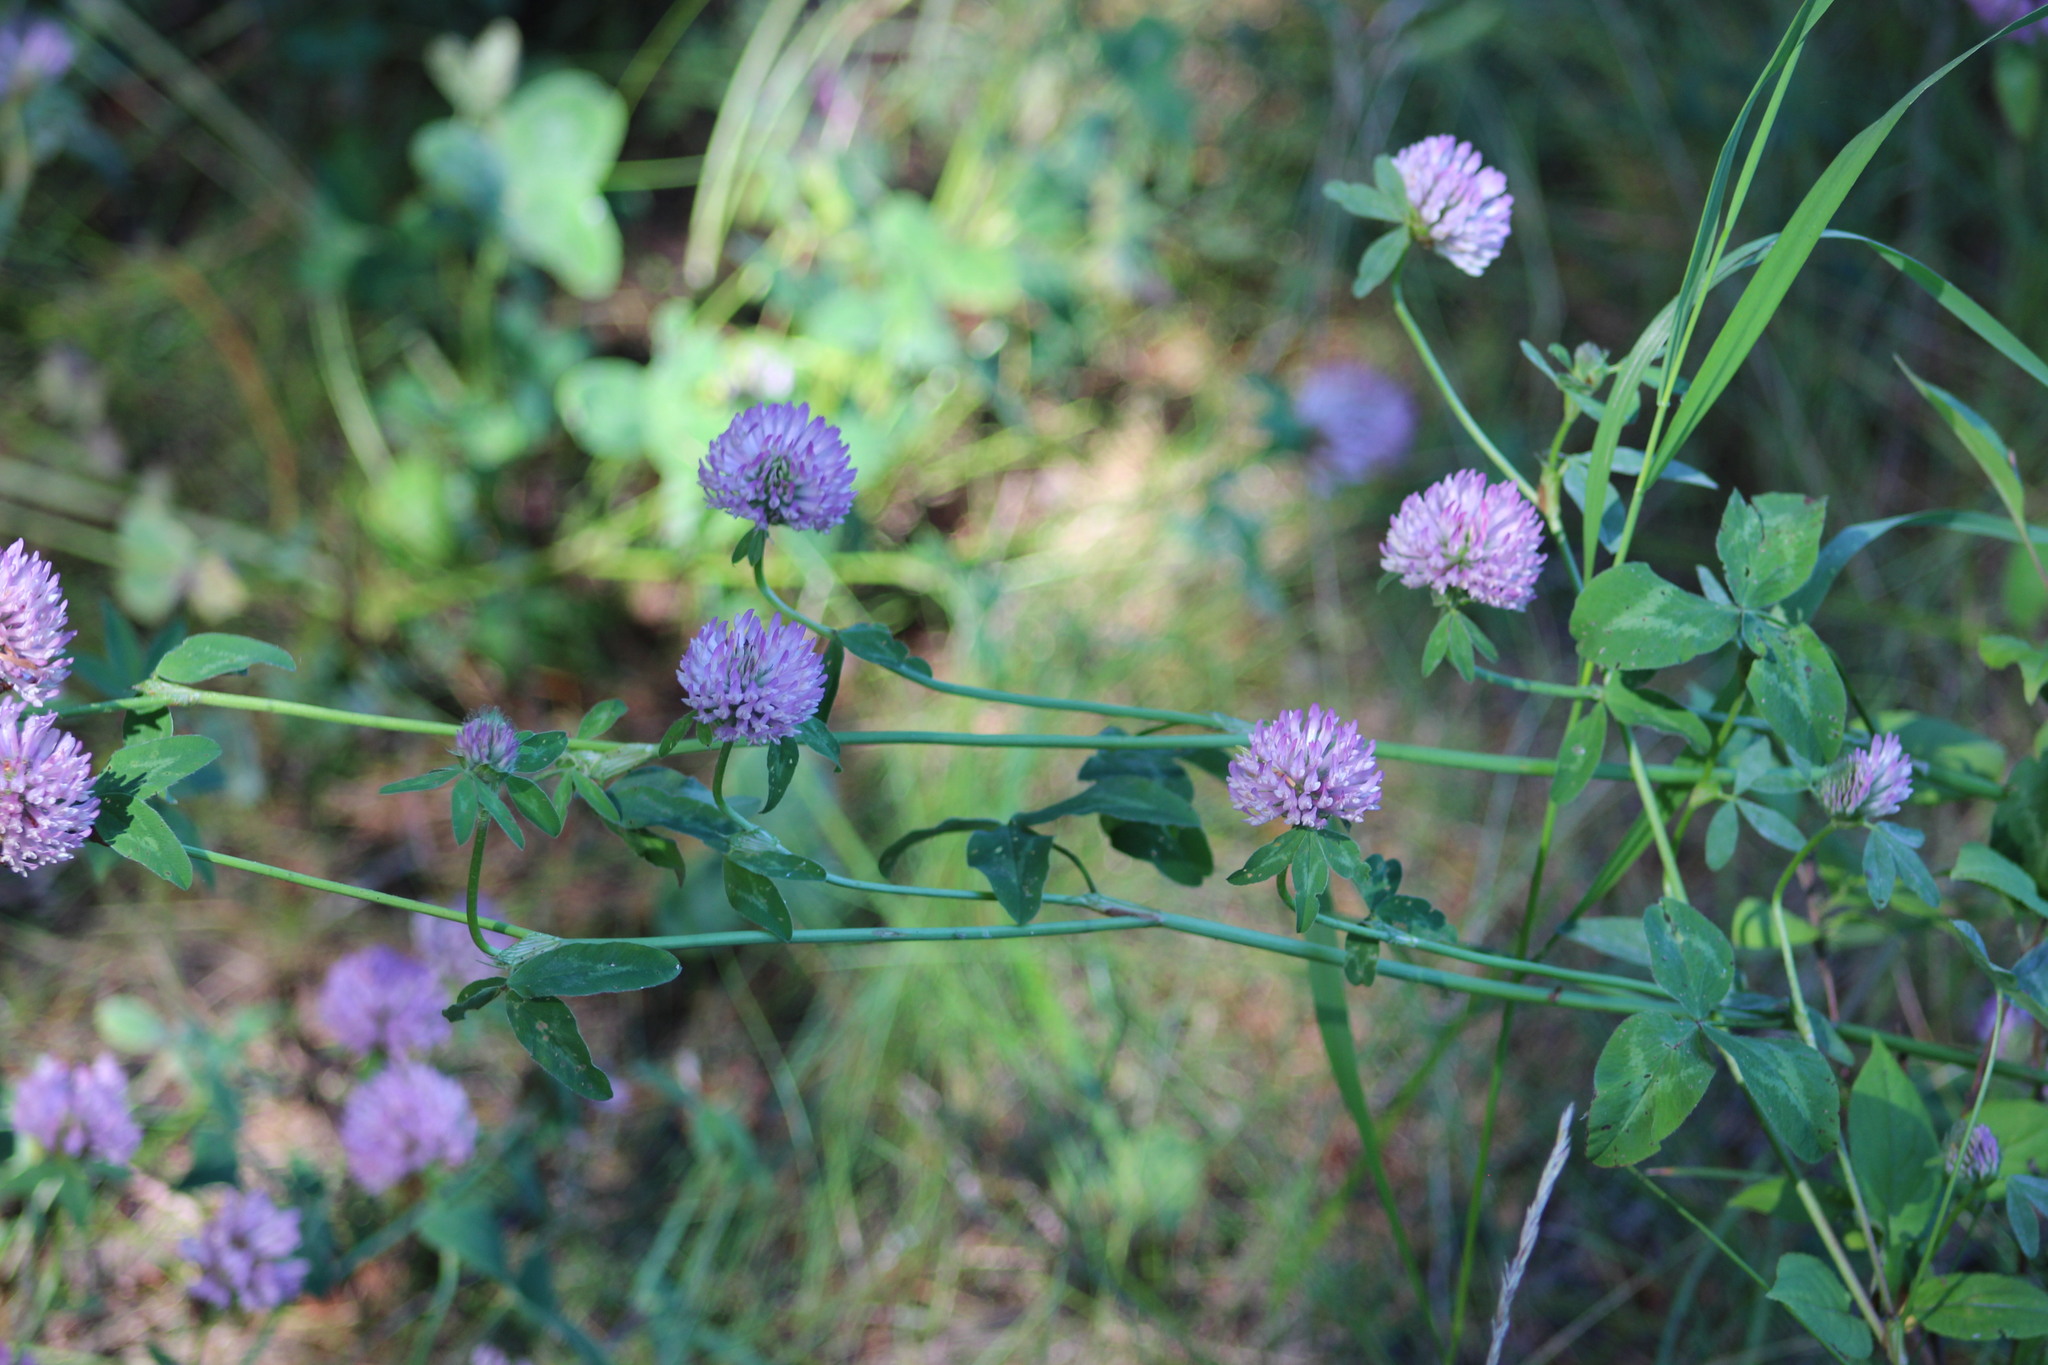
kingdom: Plantae
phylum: Tracheophyta
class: Magnoliopsida
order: Fabales
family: Fabaceae
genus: Trifolium
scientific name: Trifolium pratense
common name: Red clover
